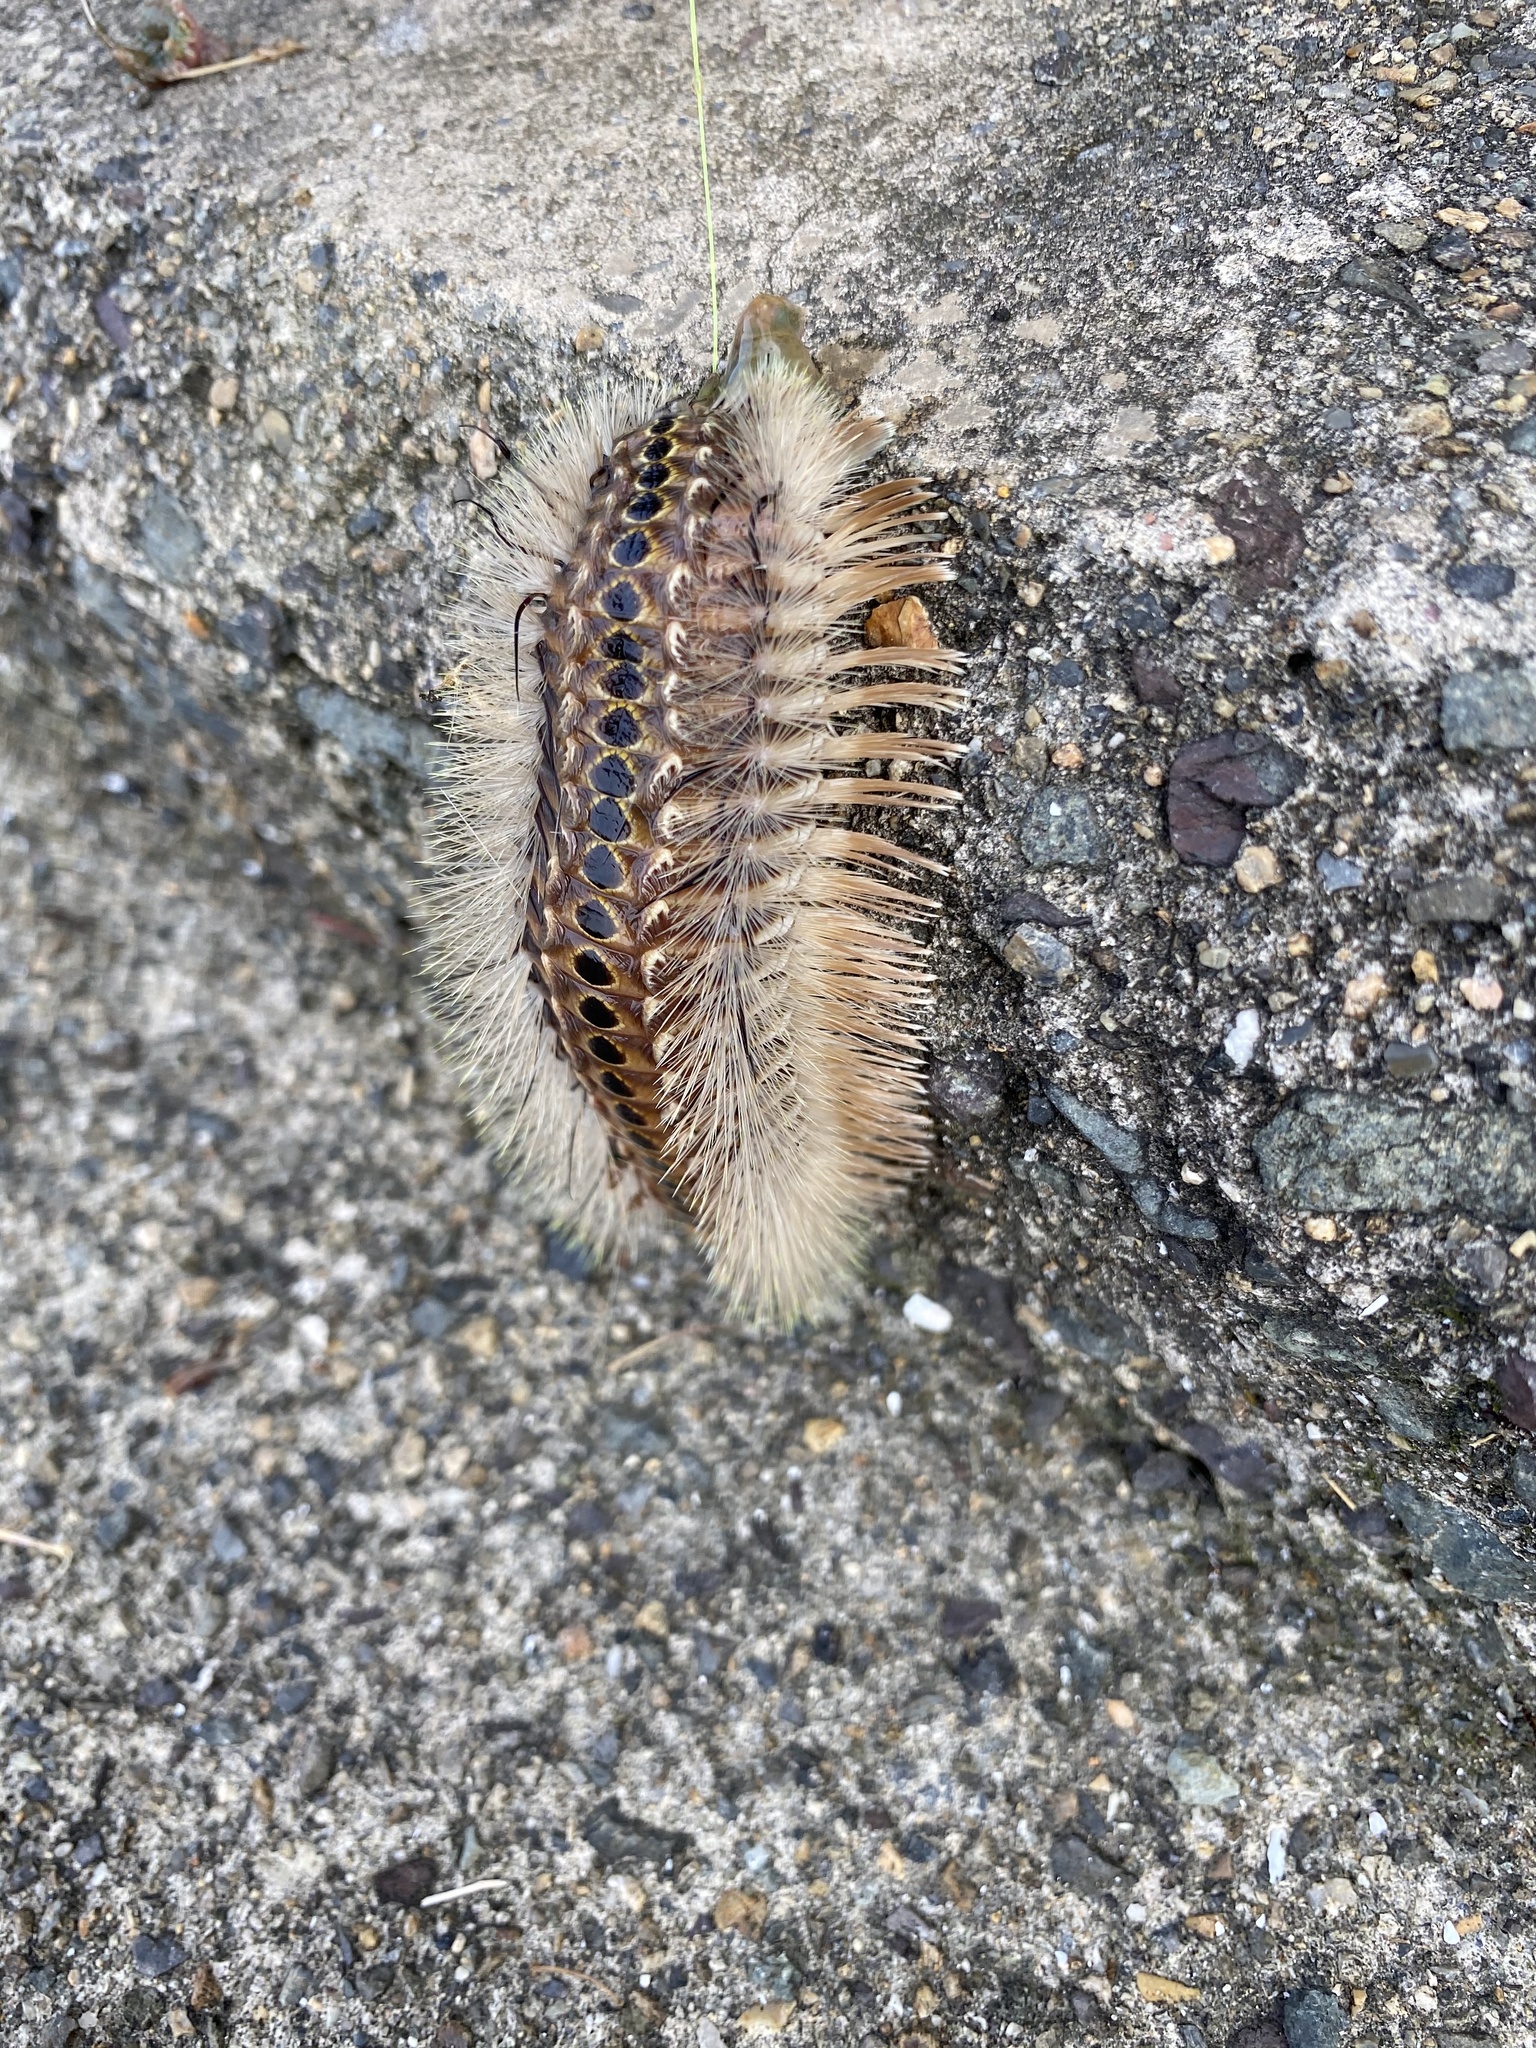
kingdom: Animalia
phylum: Annelida
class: Polychaeta
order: Amphinomida
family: Amphinomidae
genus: Chloeia
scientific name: Chloeia flava
